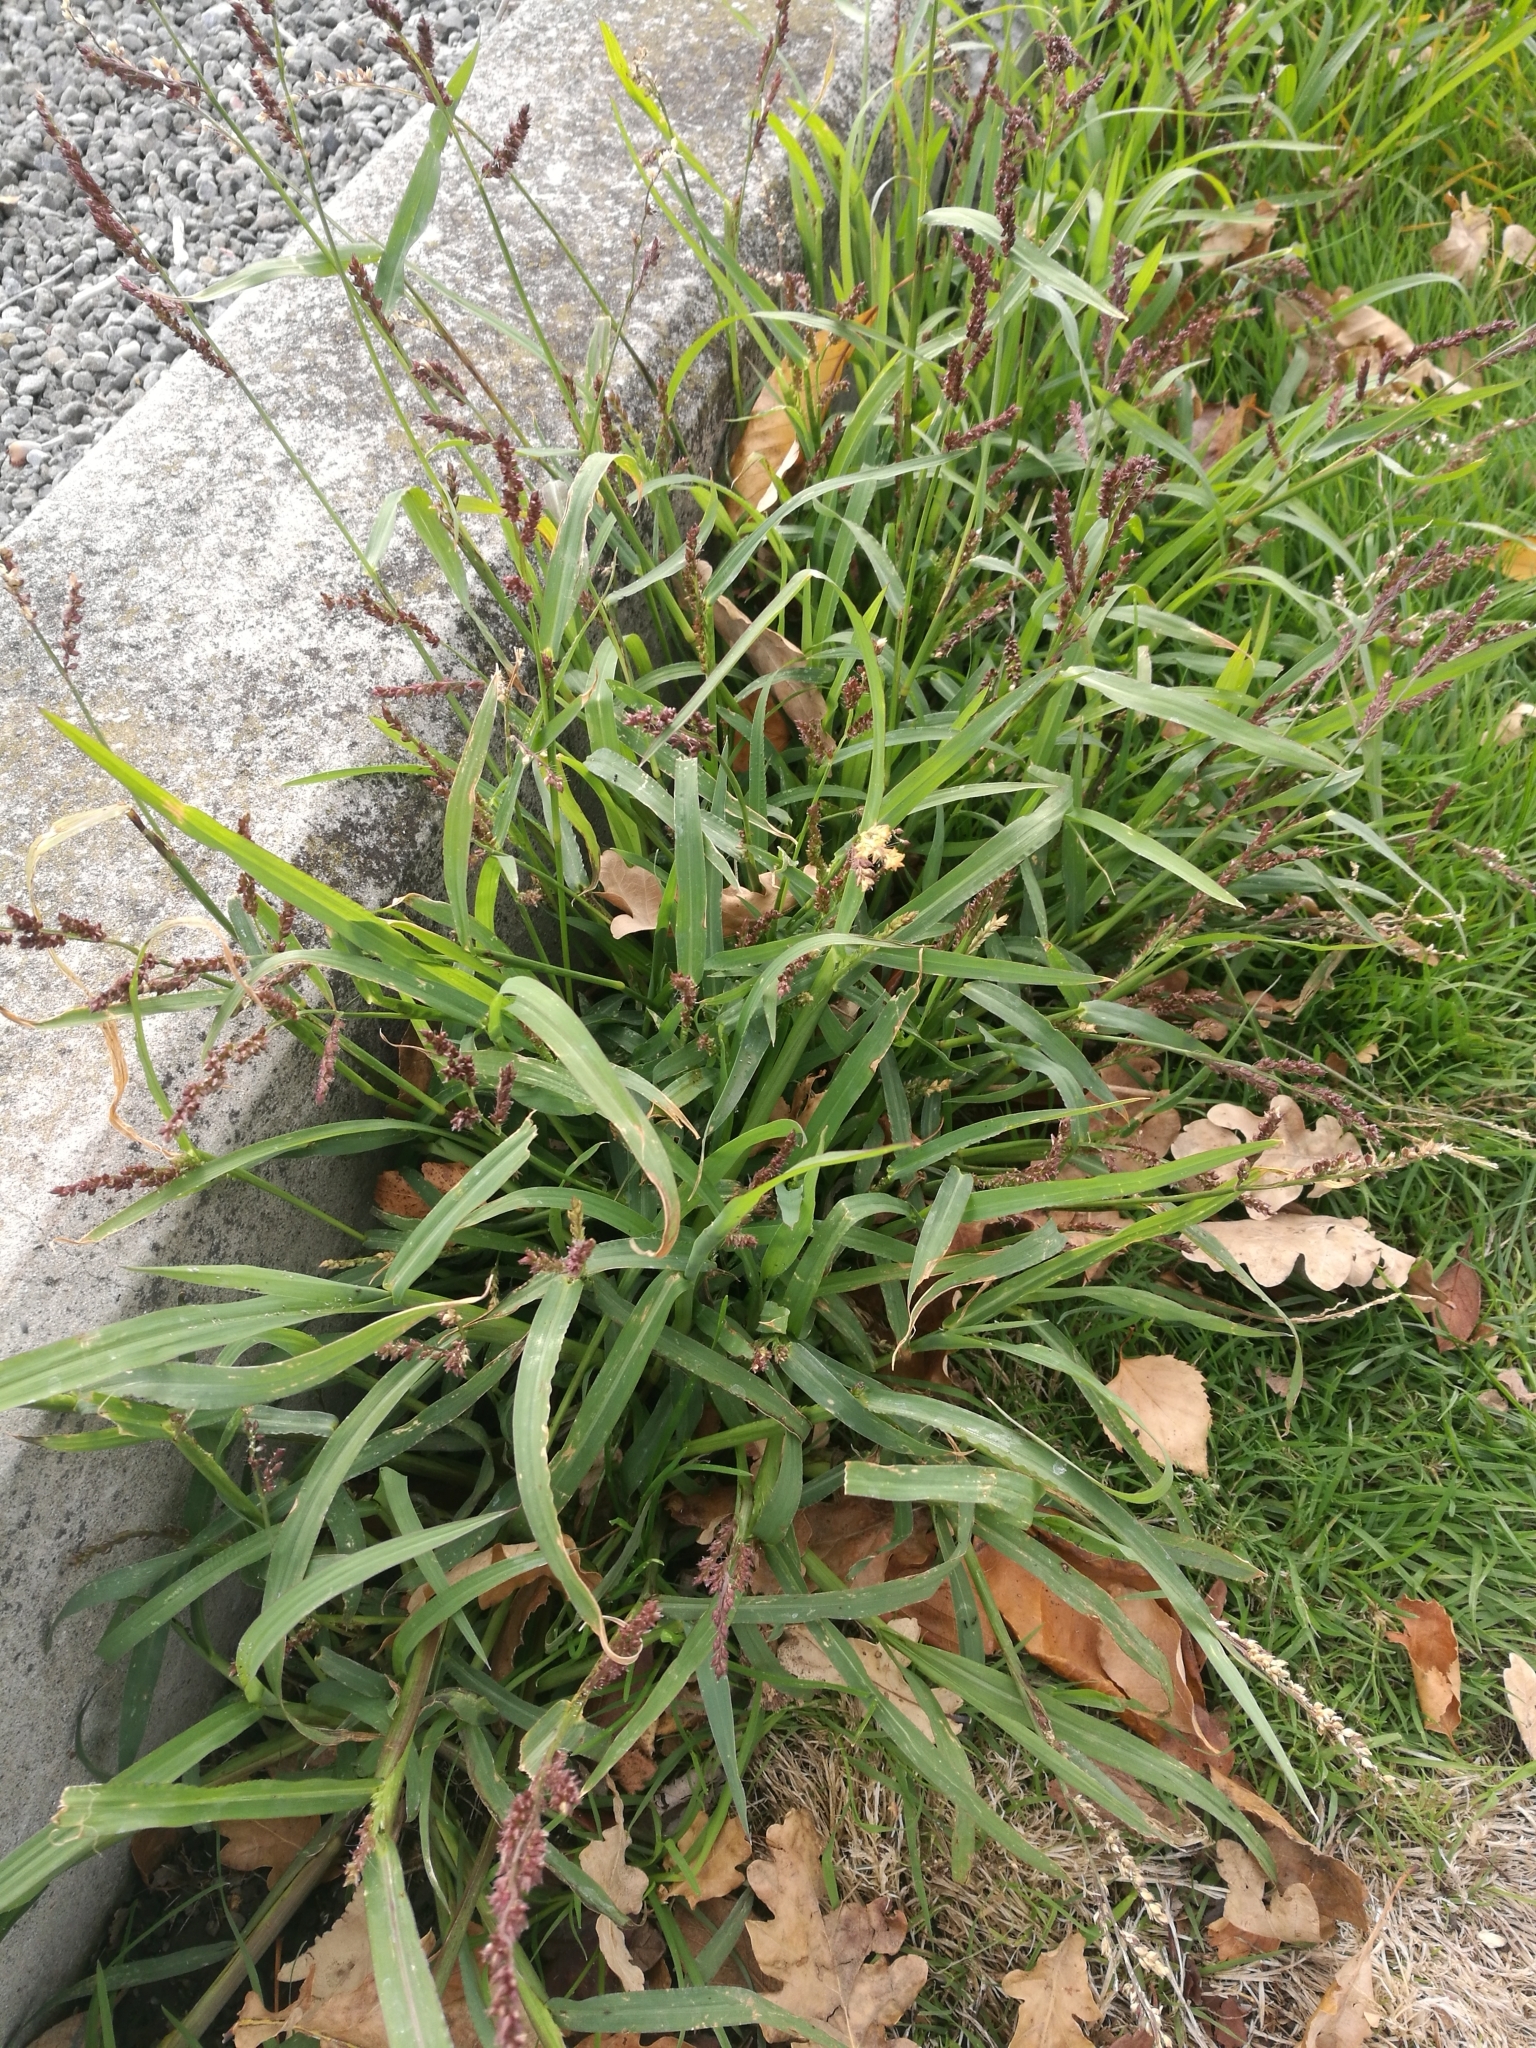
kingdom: Plantae
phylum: Tracheophyta
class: Liliopsida
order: Poales
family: Poaceae
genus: Echinochloa
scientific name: Echinochloa crus-galli
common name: Cockspur
